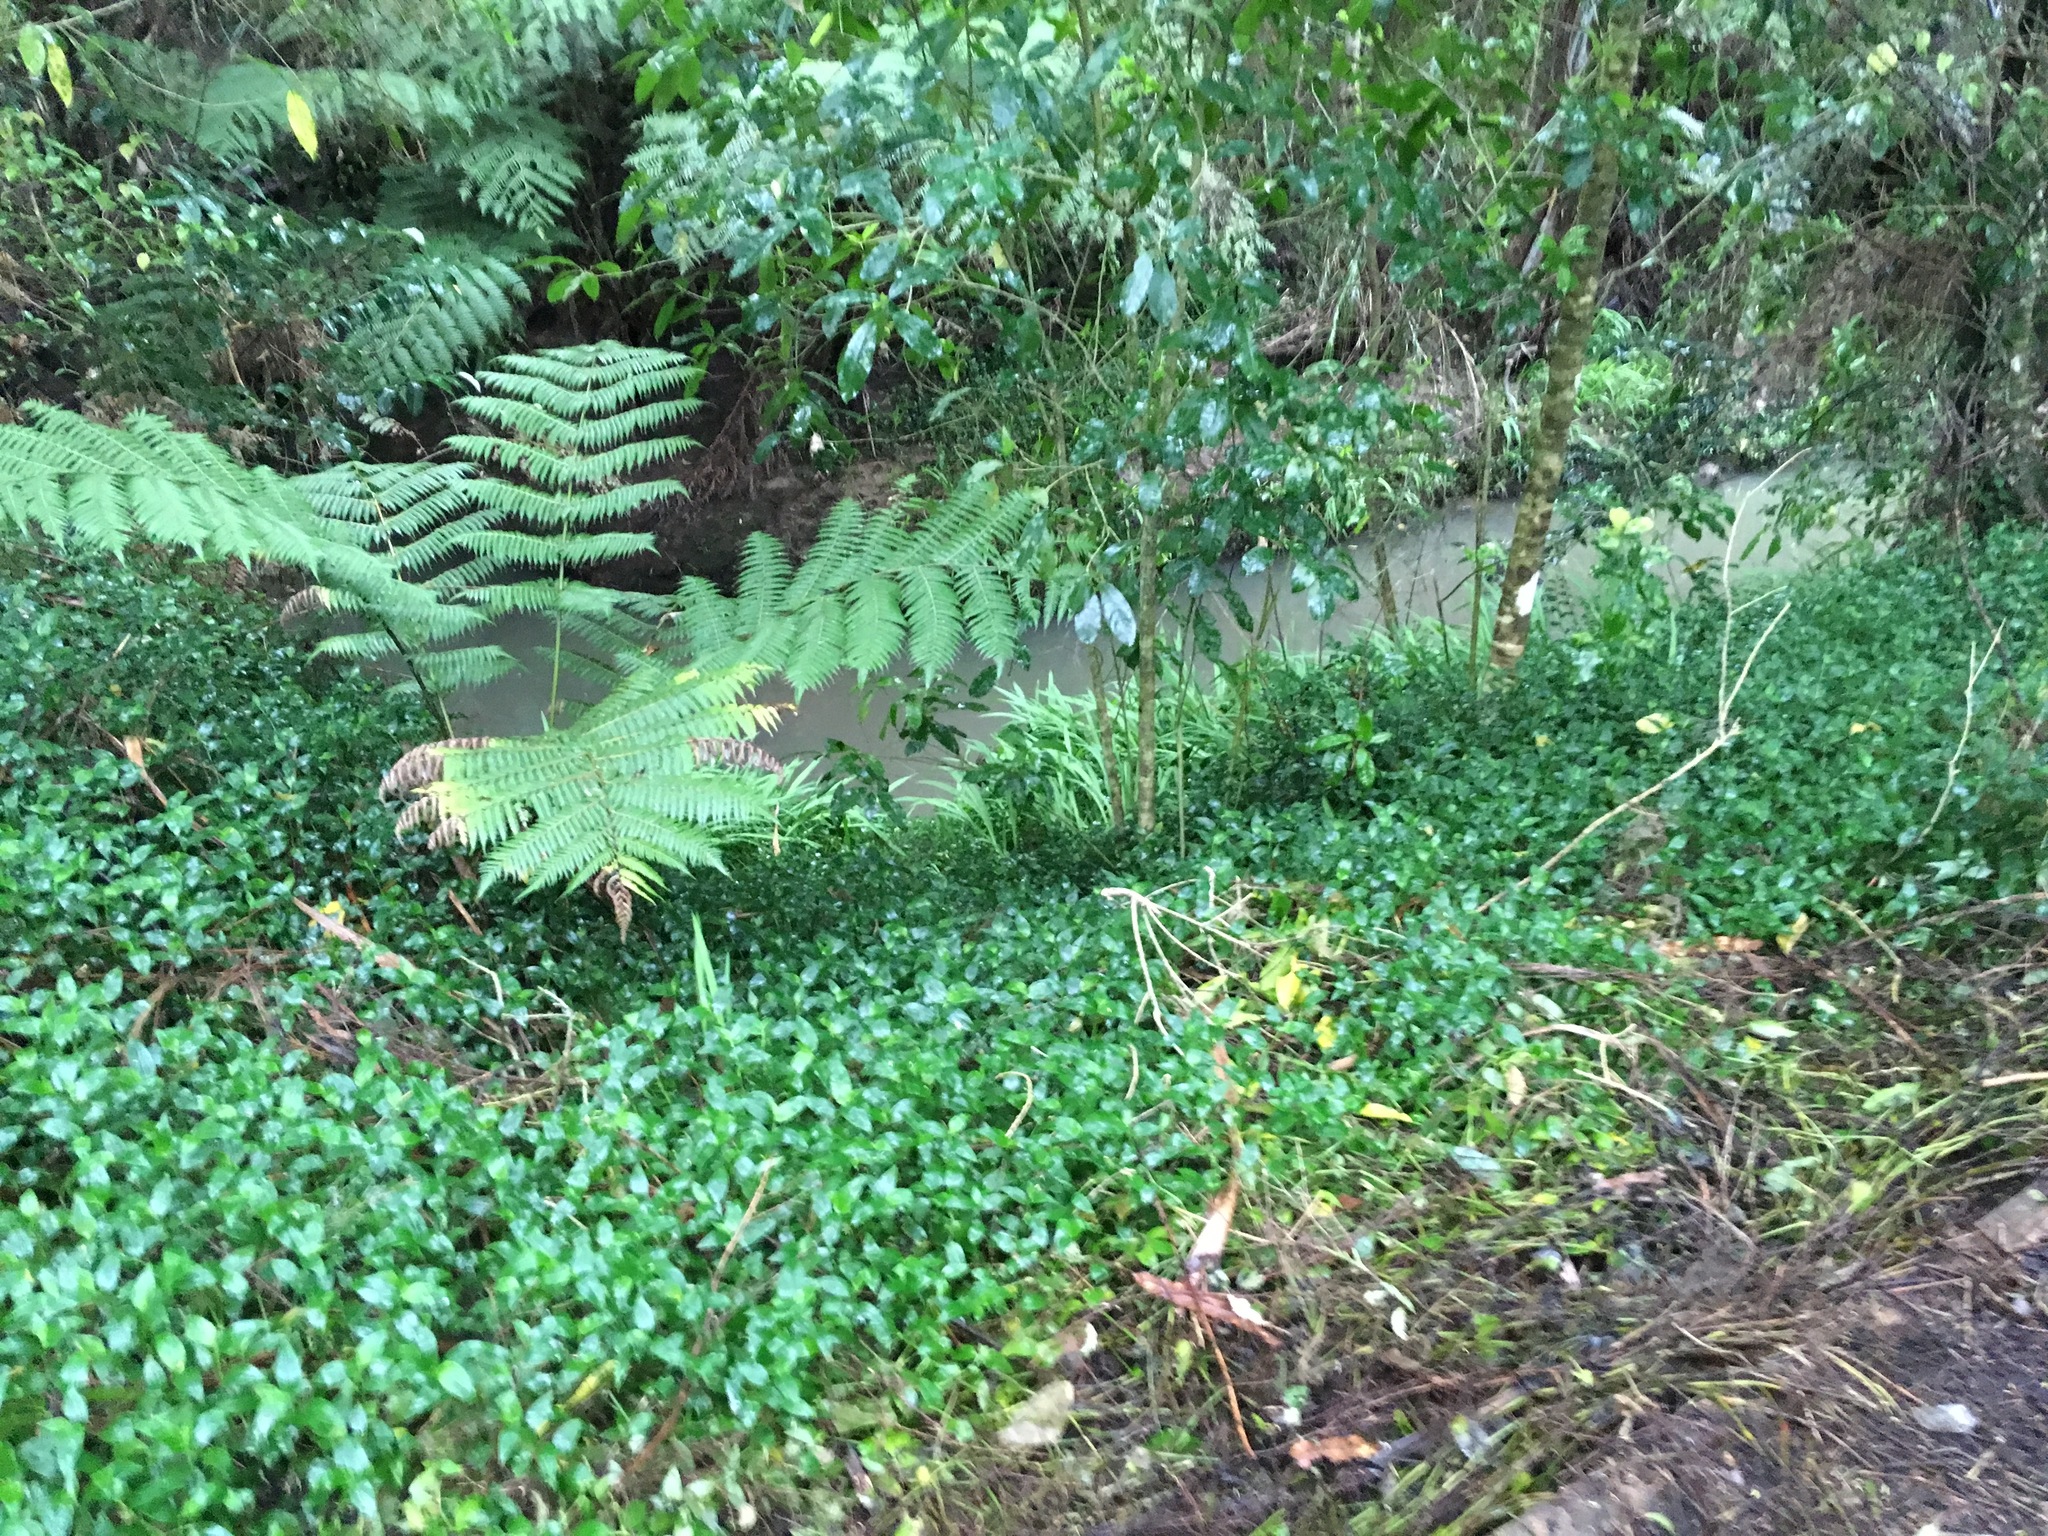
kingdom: Plantae
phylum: Tracheophyta
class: Liliopsida
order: Commelinales
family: Commelinaceae
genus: Tradescantia
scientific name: Tradescantia fluminensis
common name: Wandering-jew
